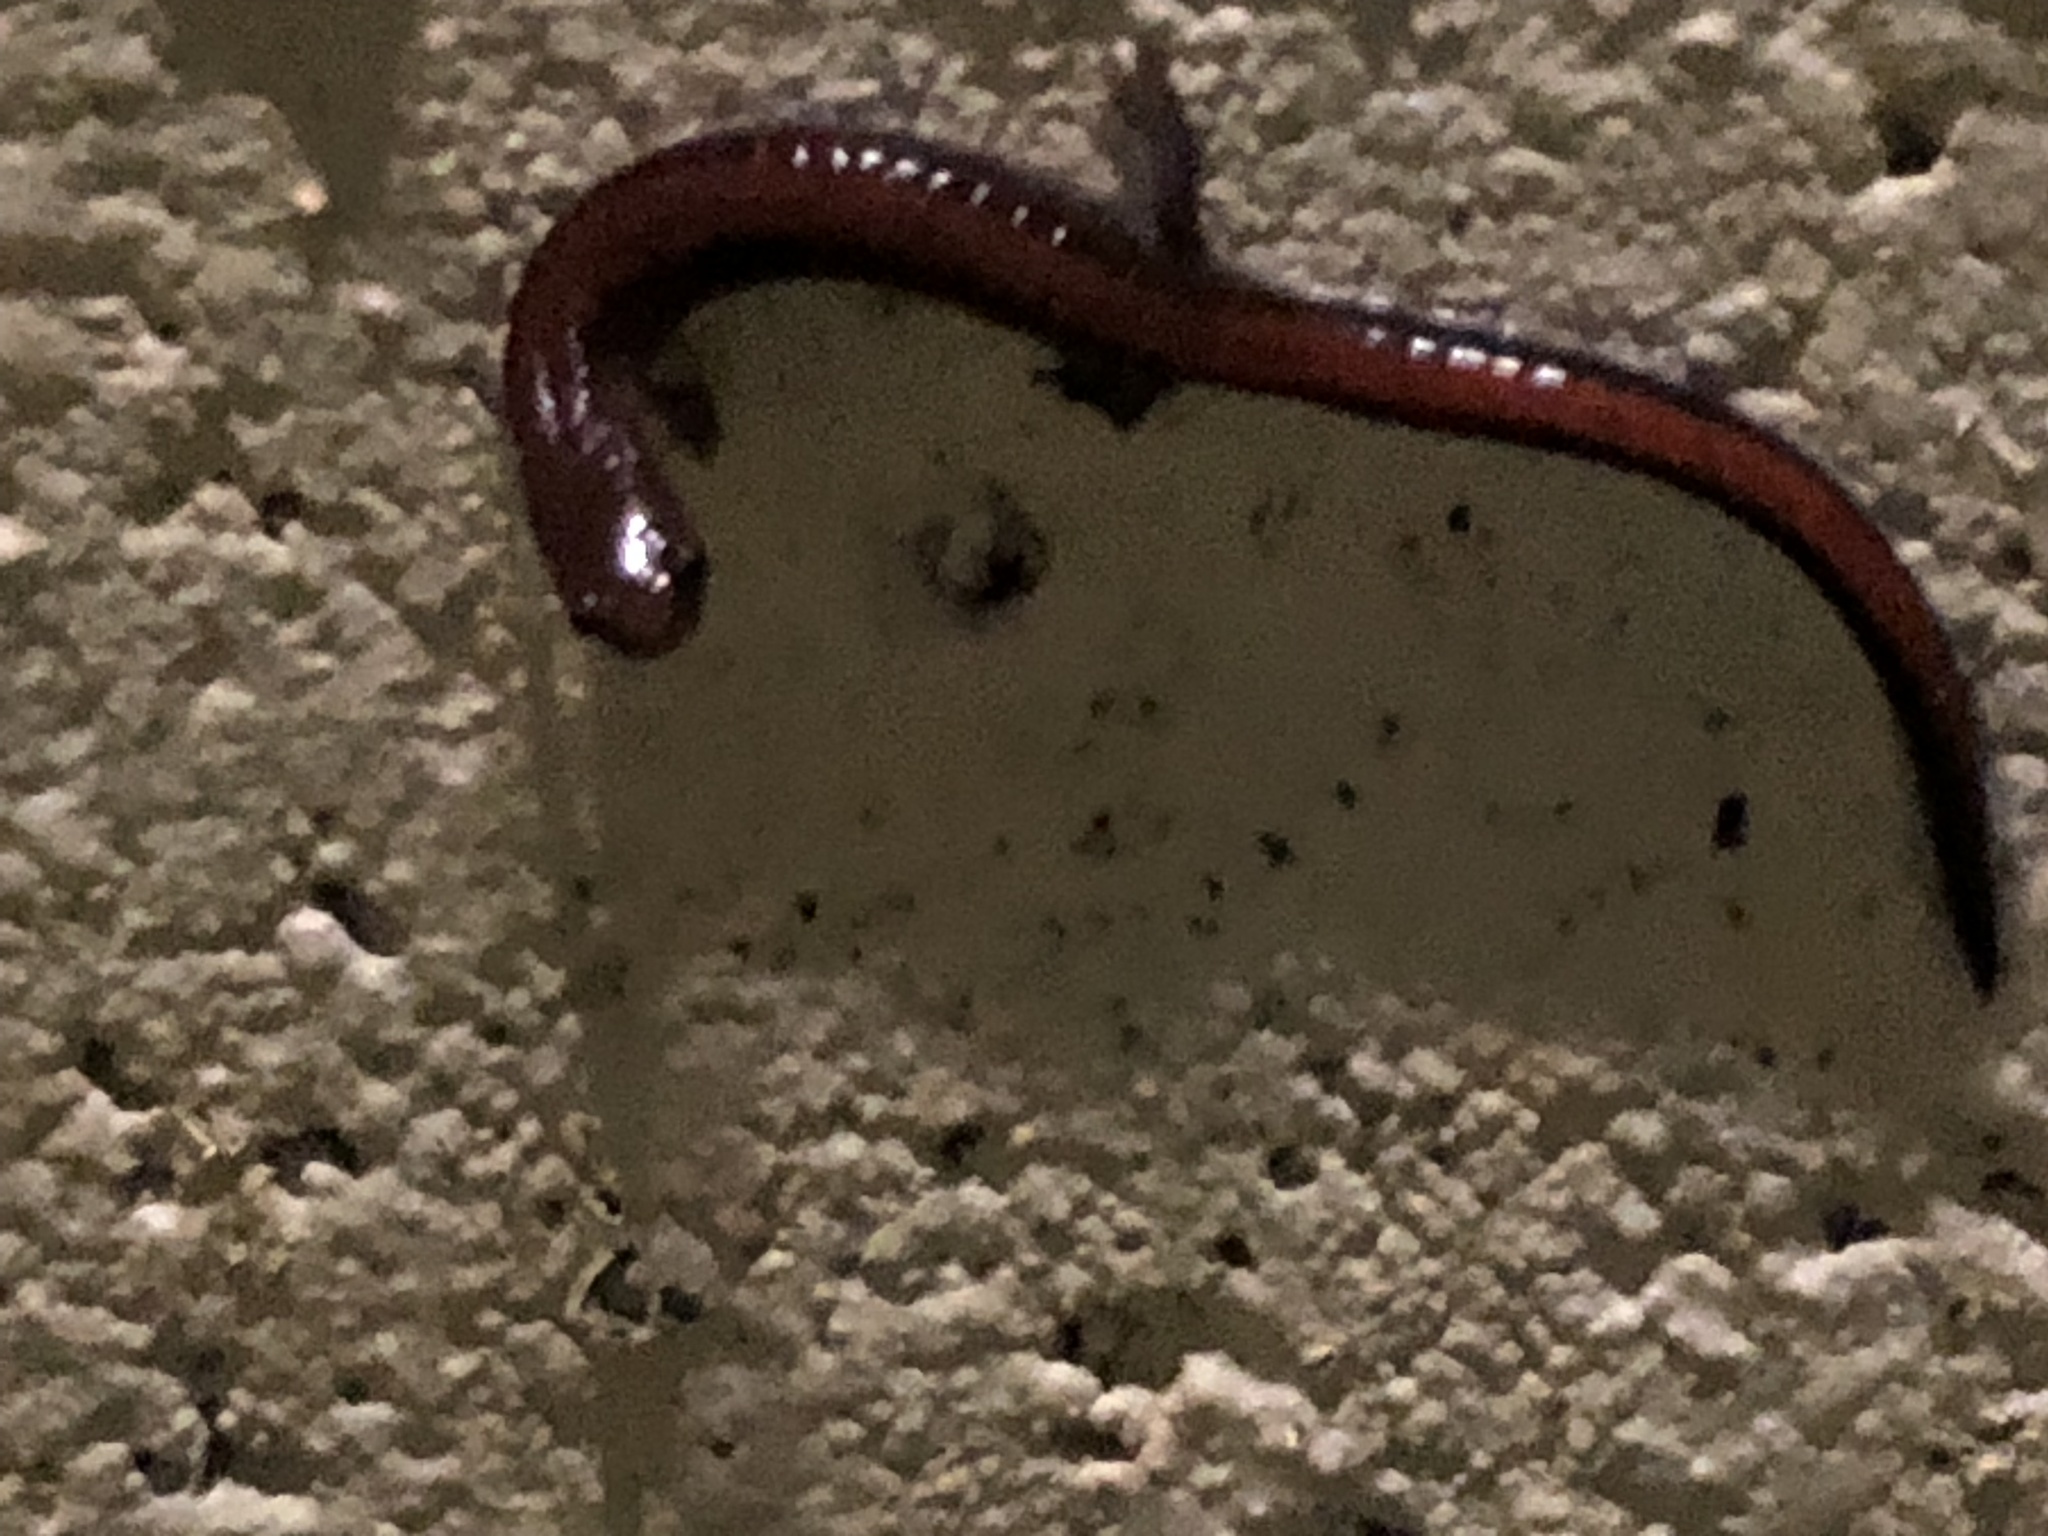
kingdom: Animalia
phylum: Chordata
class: Amphibia
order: Caudata
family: Plethodontidae
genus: Plethodon
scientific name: Plethodon serratus
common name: Southern red-backed salamander
